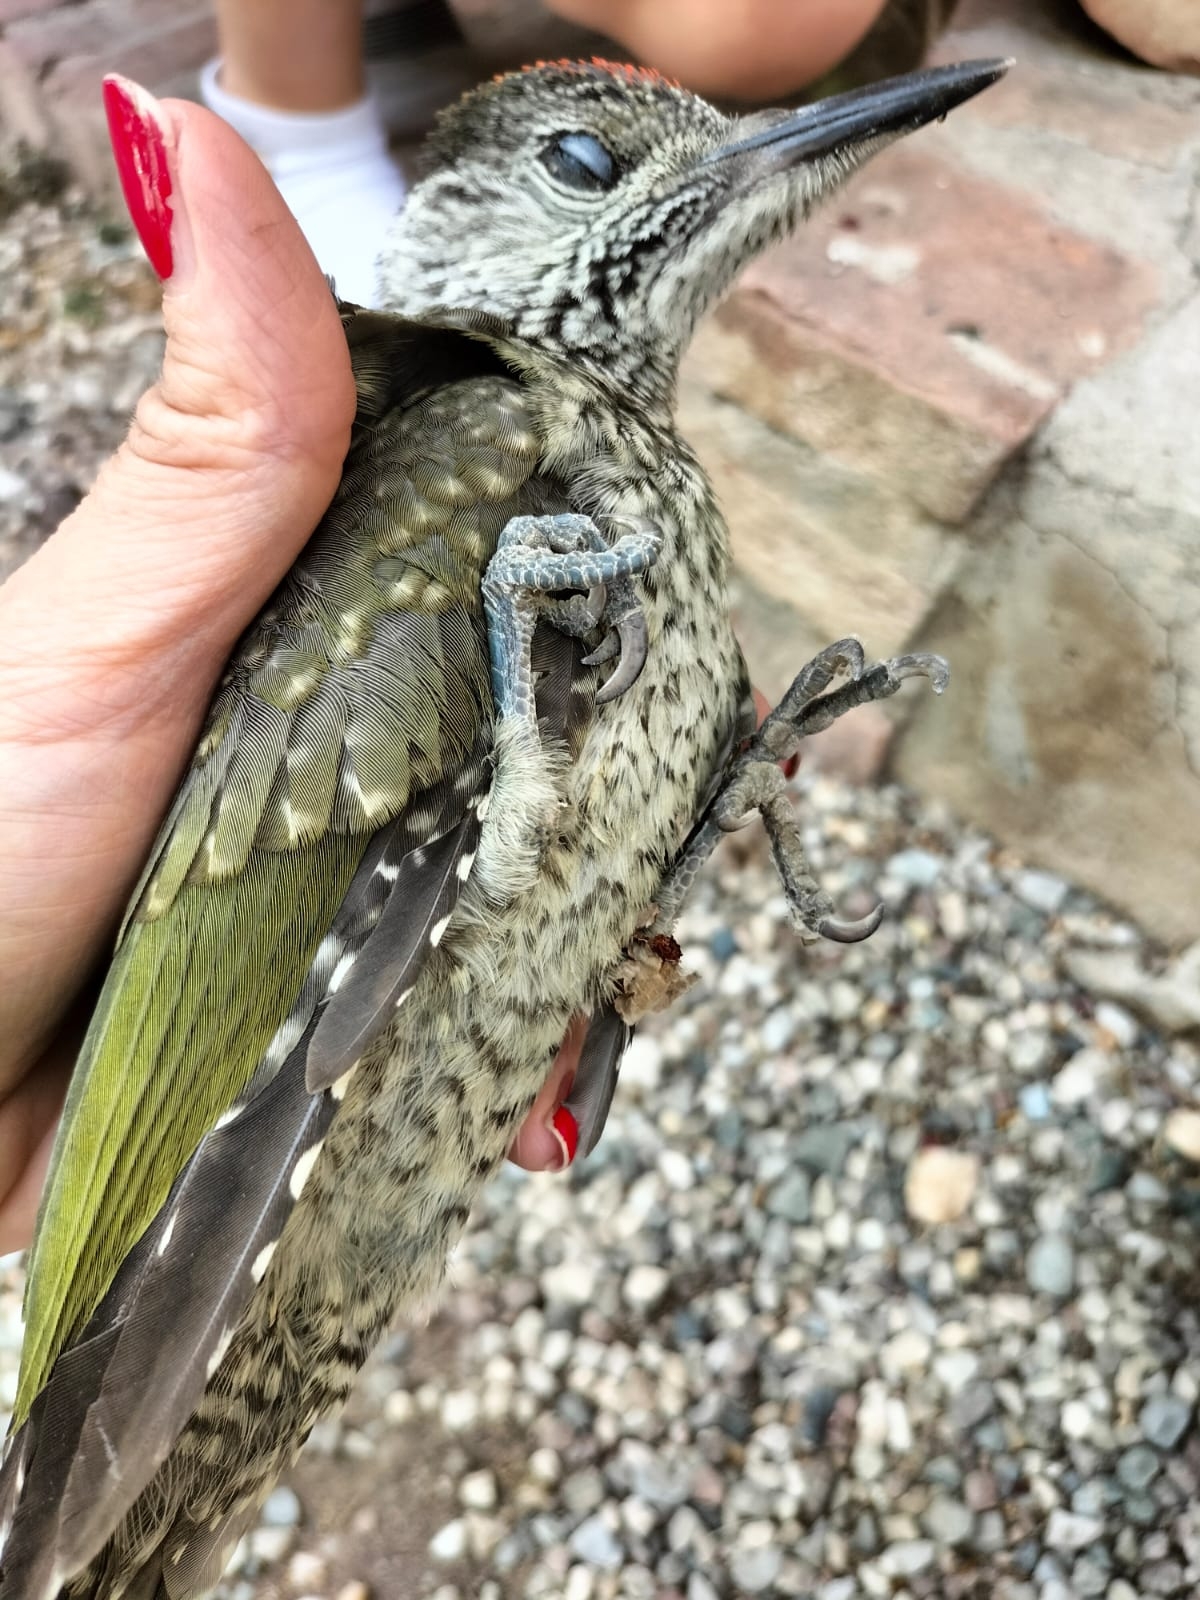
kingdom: Animalia
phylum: Chordata
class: Aves
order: Piciformes
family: Picidae
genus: Picus
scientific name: Picus viridis
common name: European green woodpecker
